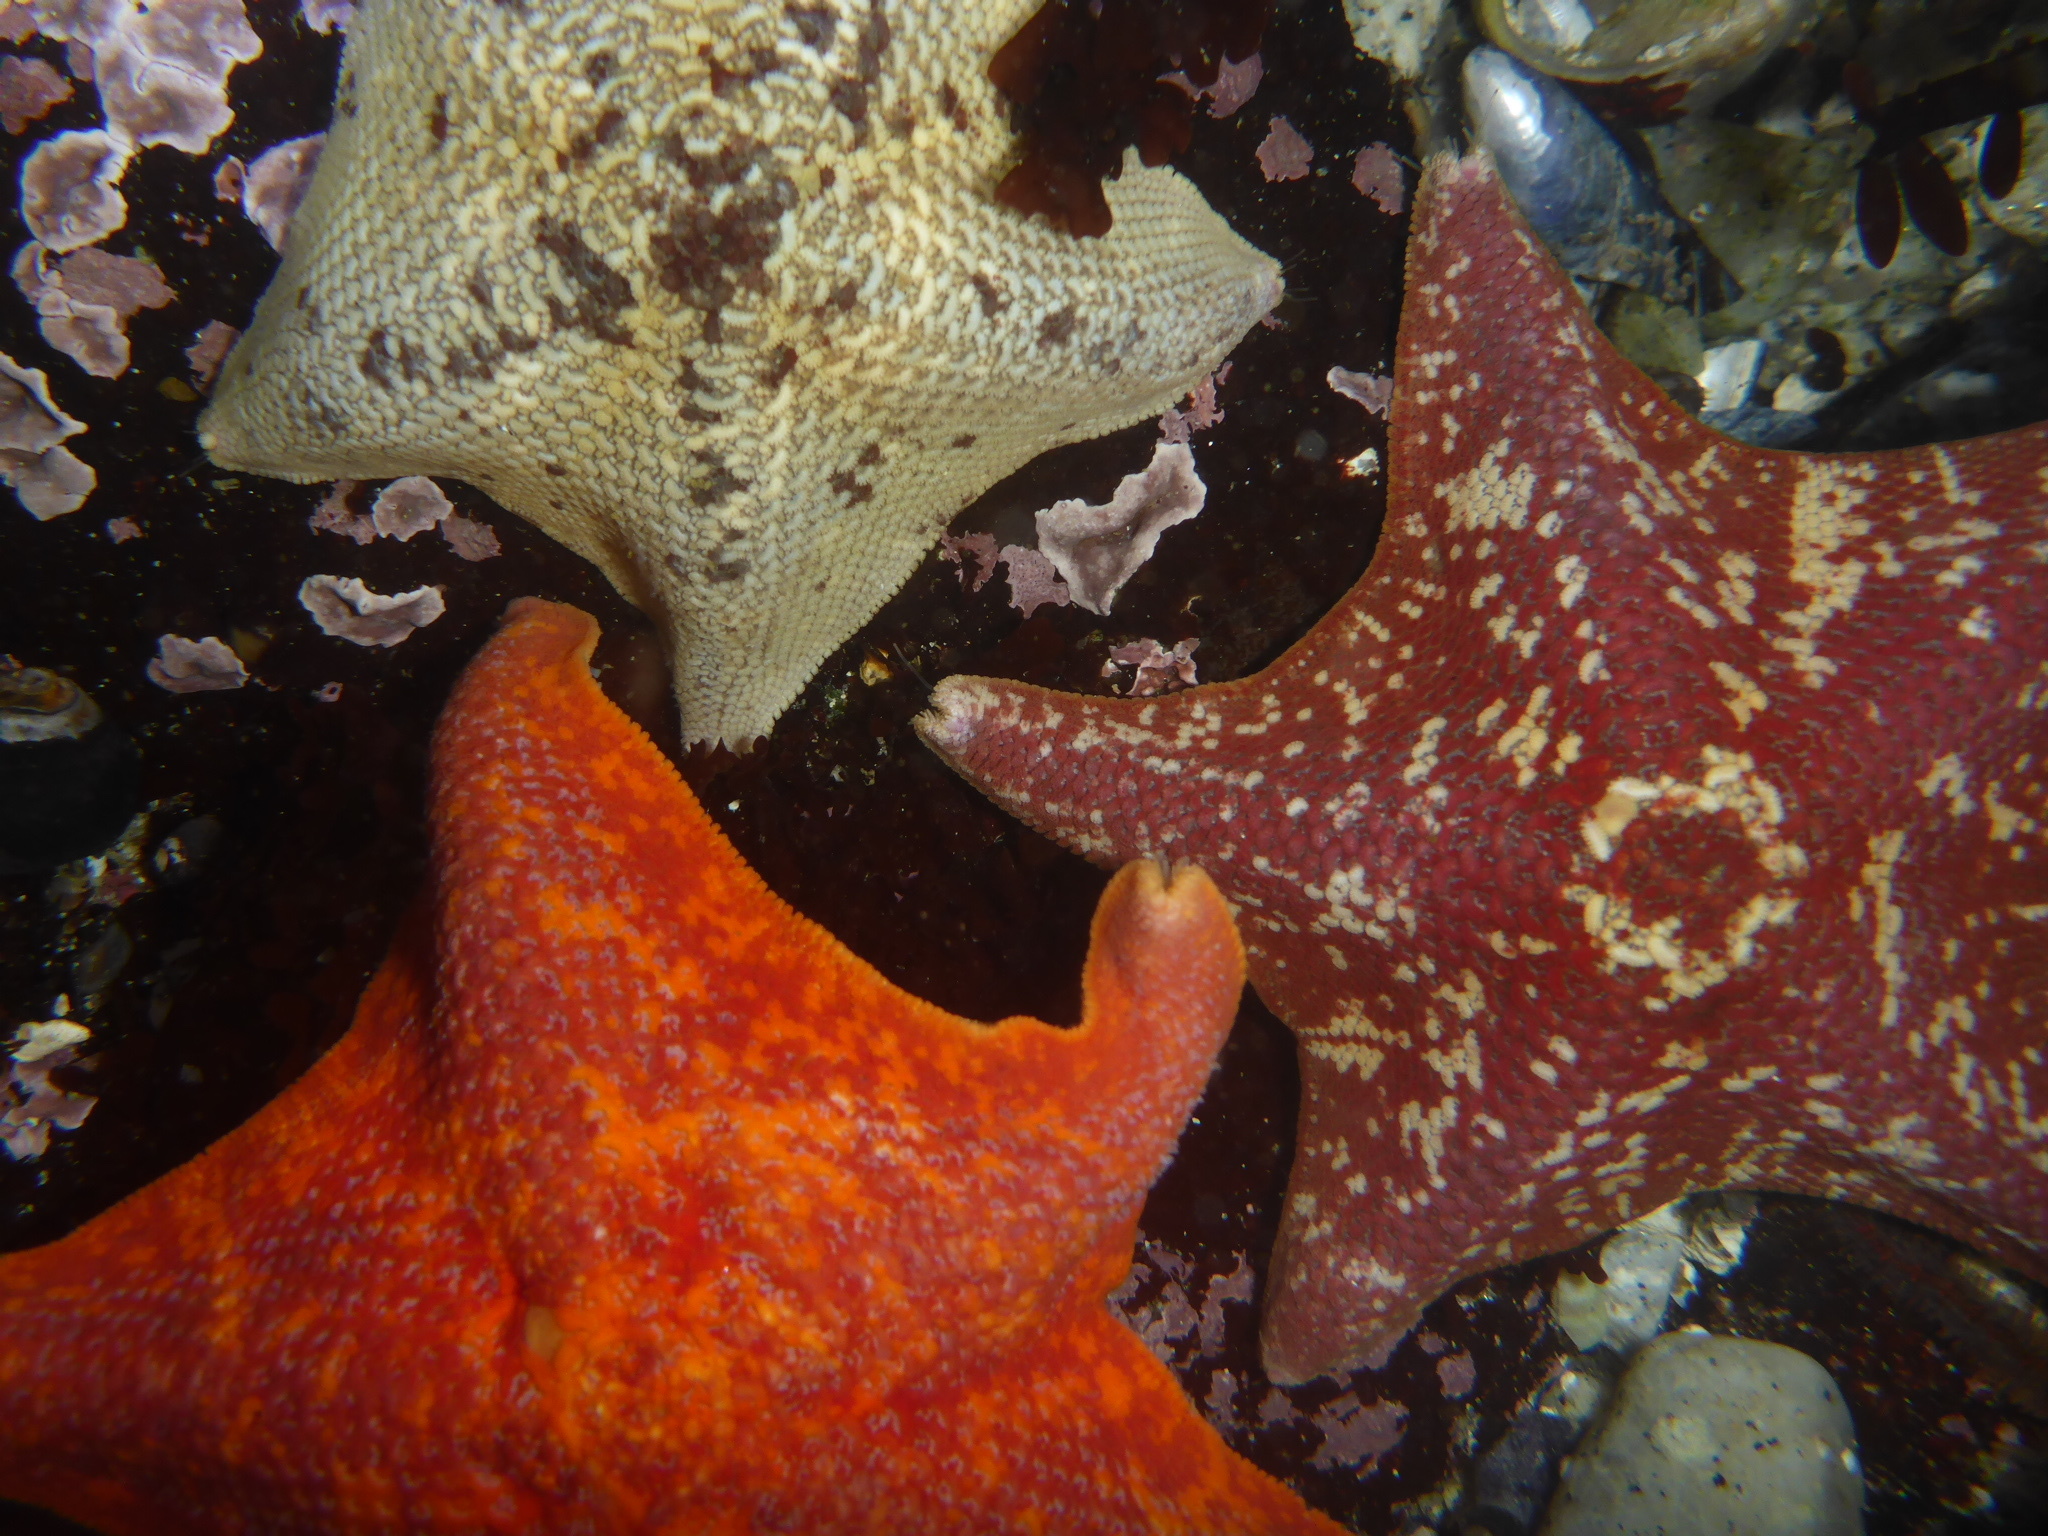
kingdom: Animalia
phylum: Echinodermata
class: Asteroidea
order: Valvatida
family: Asterinidae
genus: Patiria
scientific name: Patiria miniata
